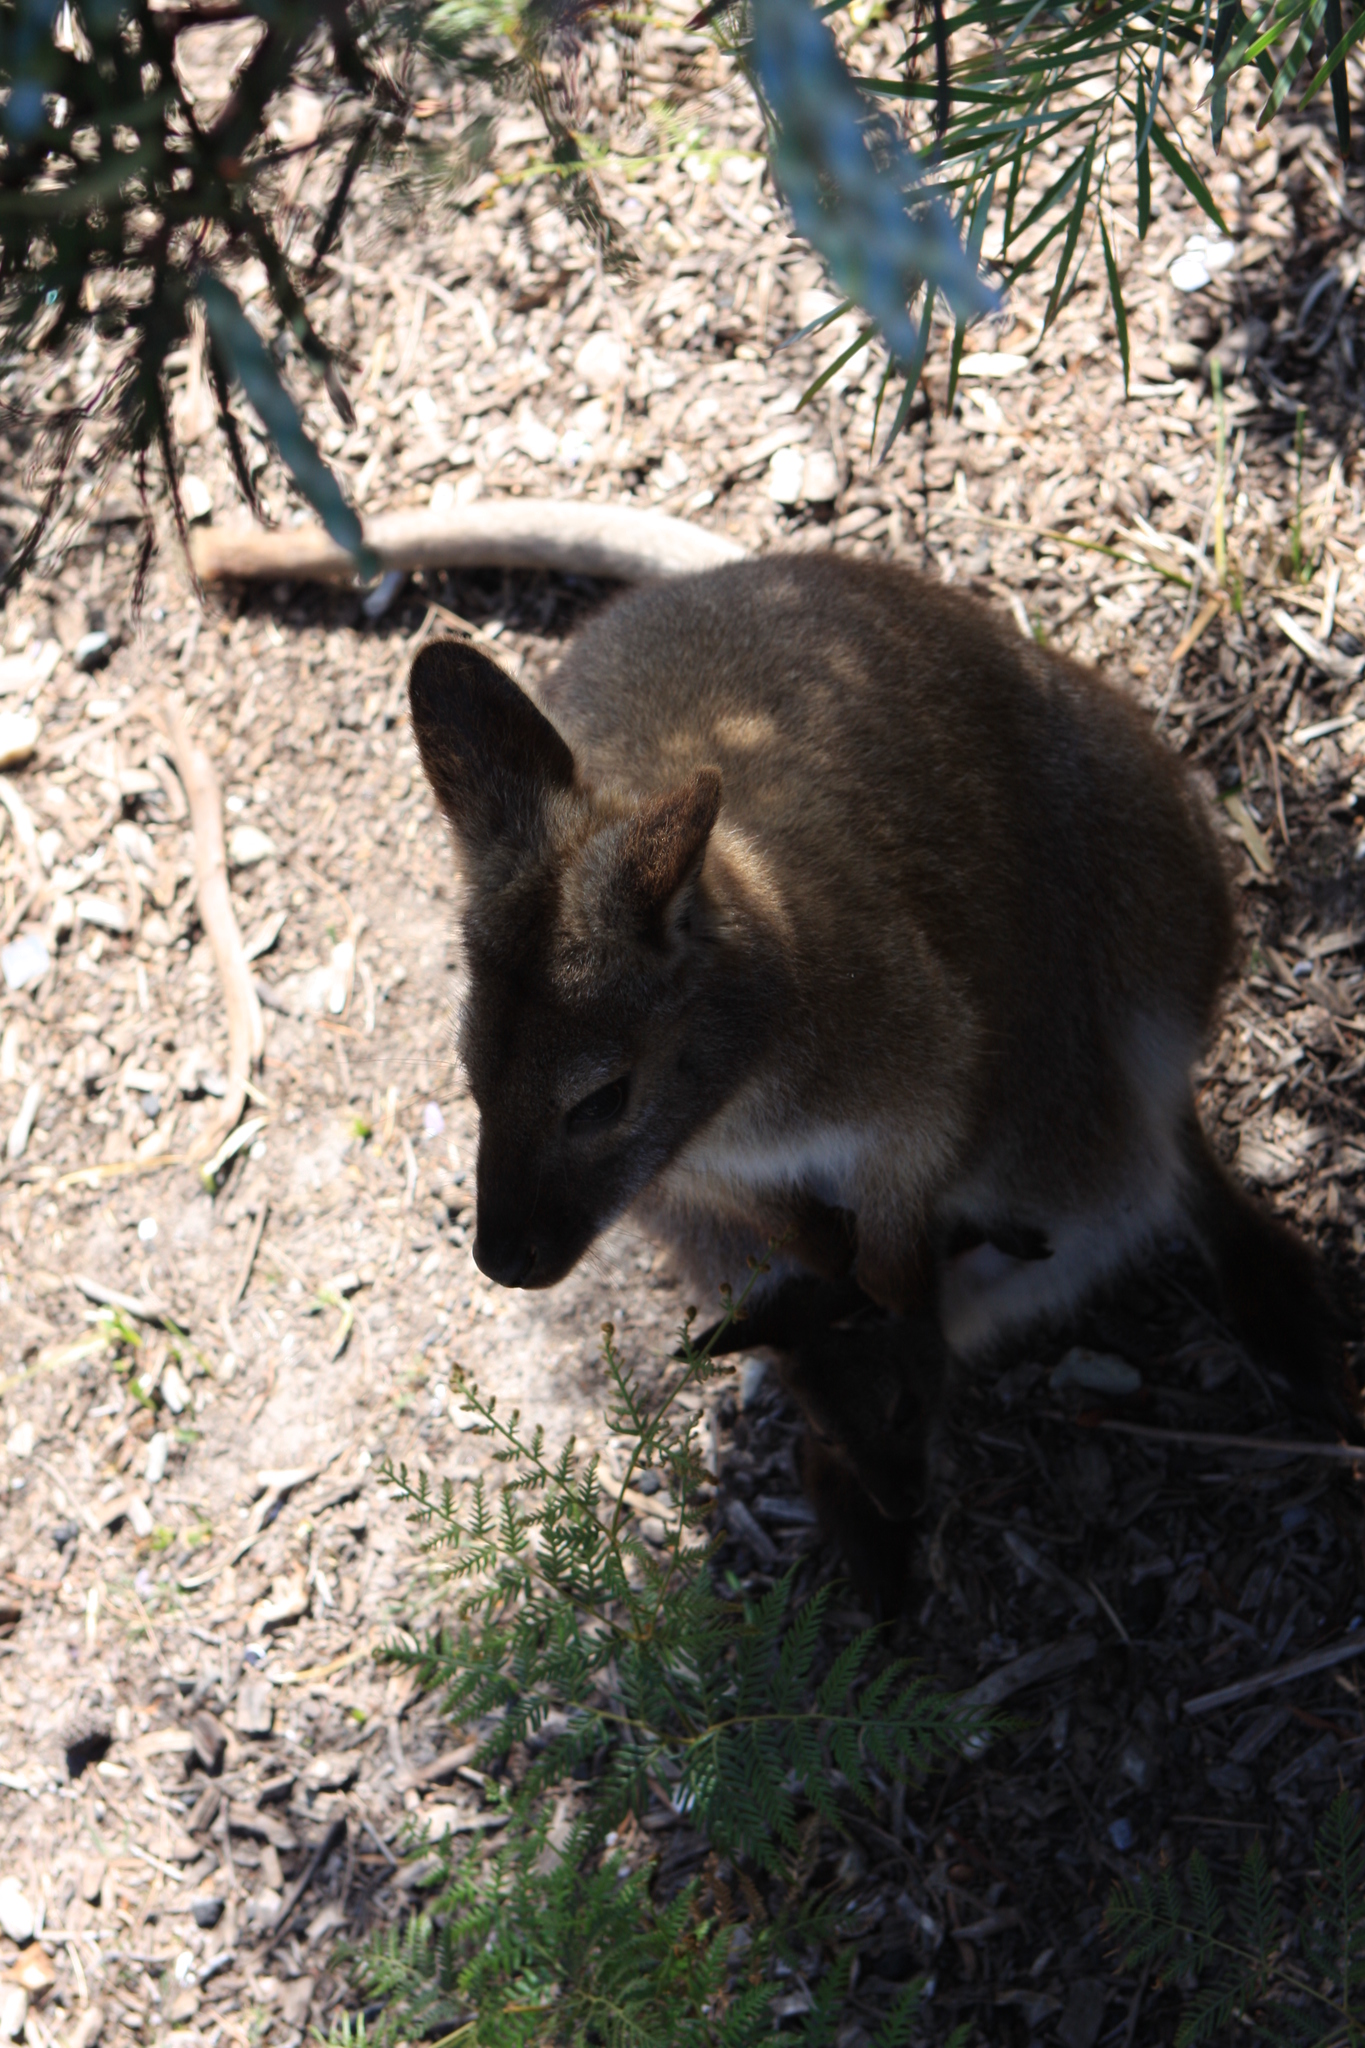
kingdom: Animalia
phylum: Chordata
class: Mammalia
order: Diprotodontia
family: Macropodidae
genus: Notamacropus
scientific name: Notamacropus rufogriseus
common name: Red-necked wallaby
